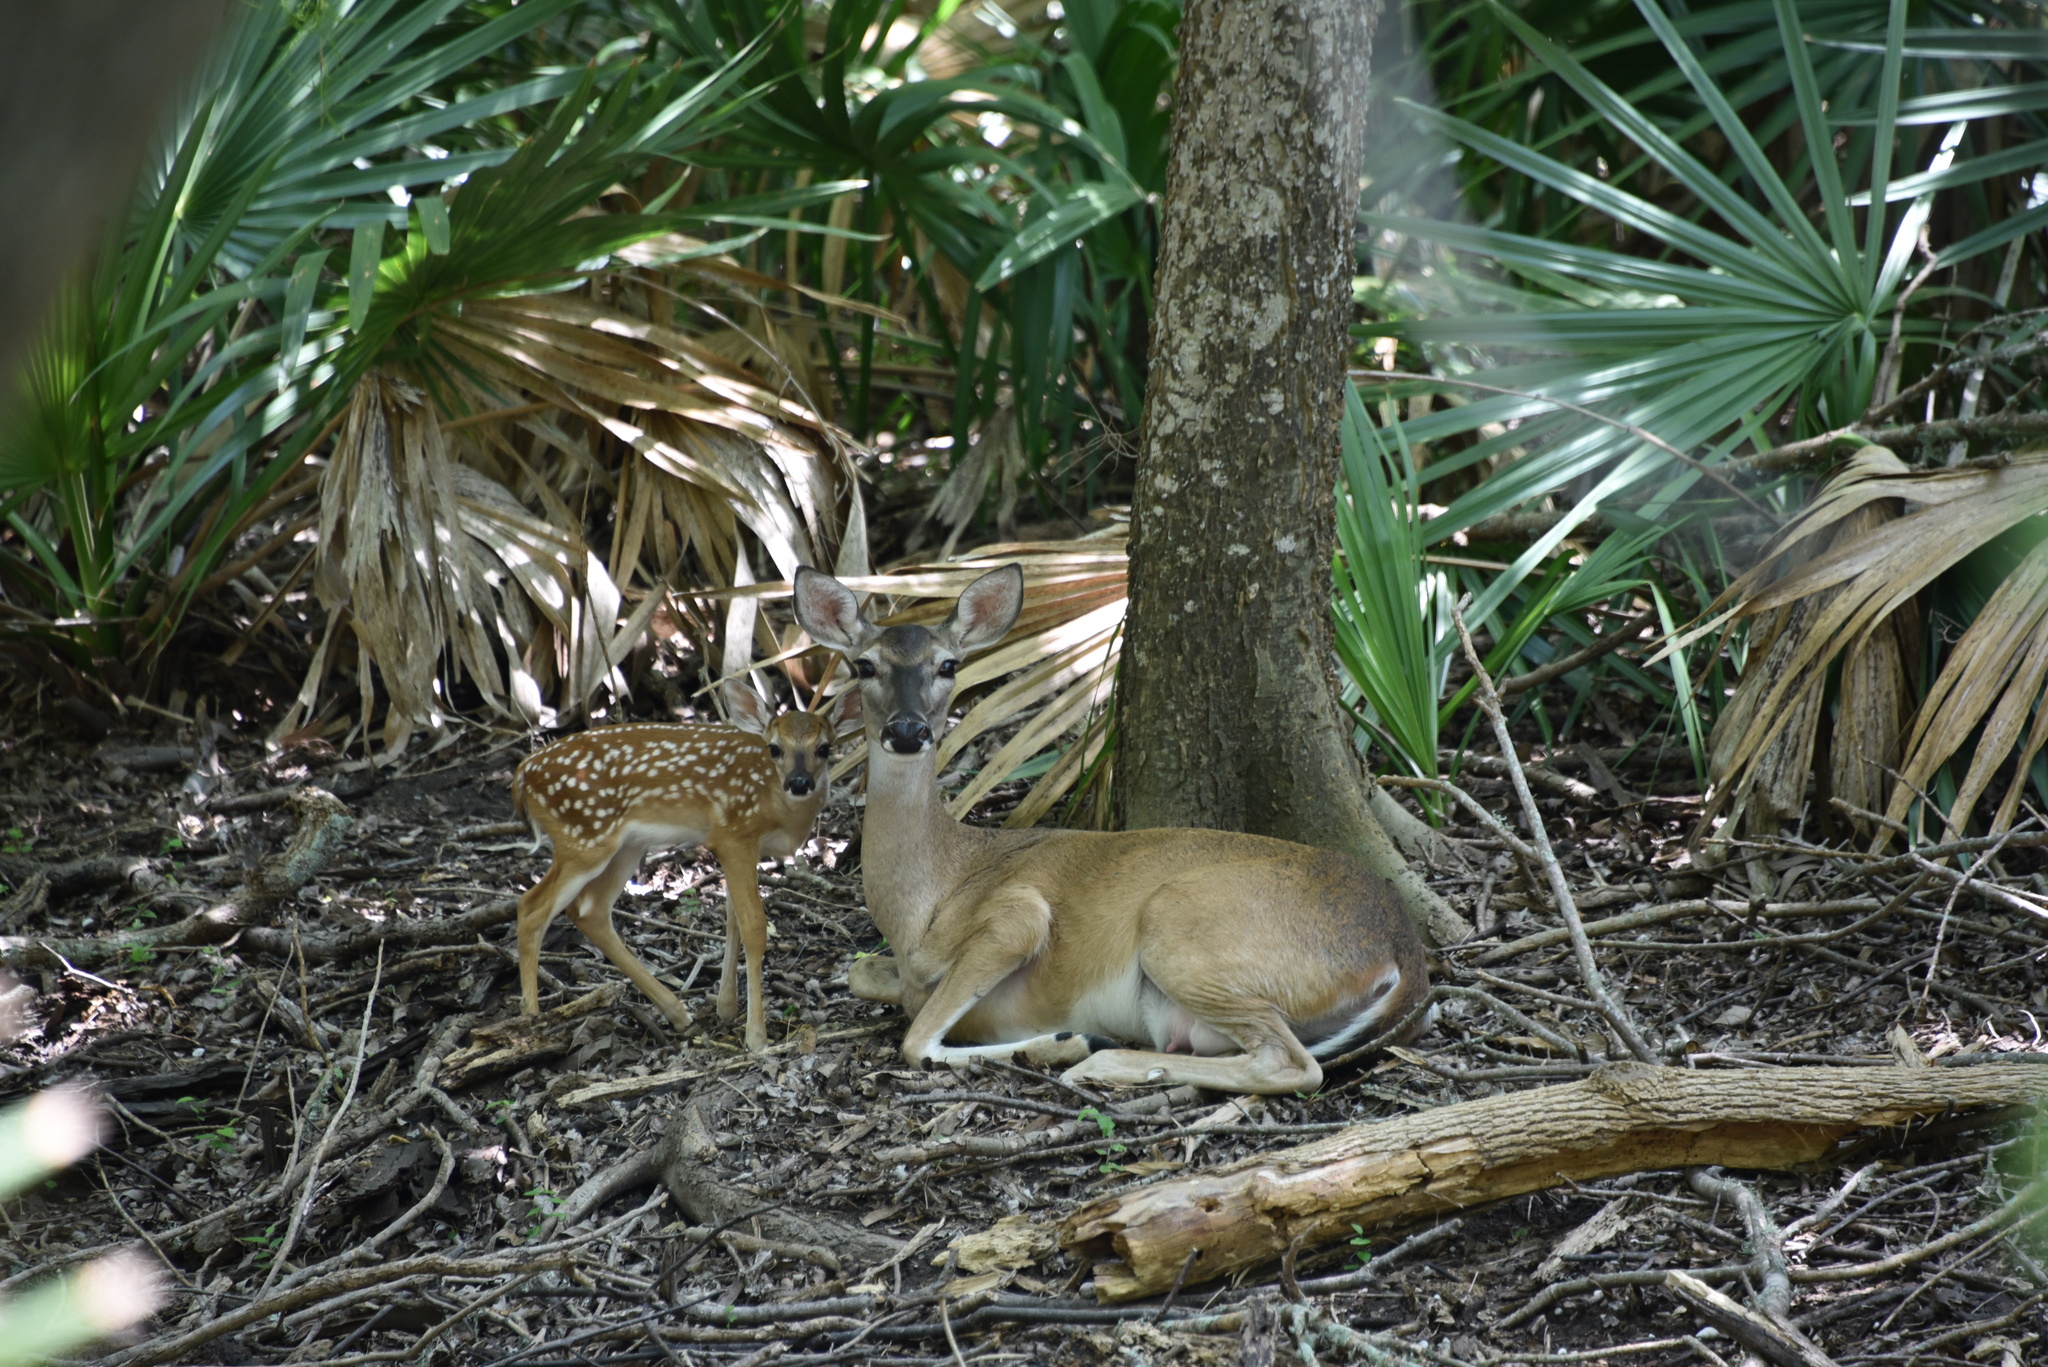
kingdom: Animalia
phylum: Chordata
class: Mammalia
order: Artiodactyla
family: Cervidae
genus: Odocoileus
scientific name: Odocoileus virginianus
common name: White-tailed deer
